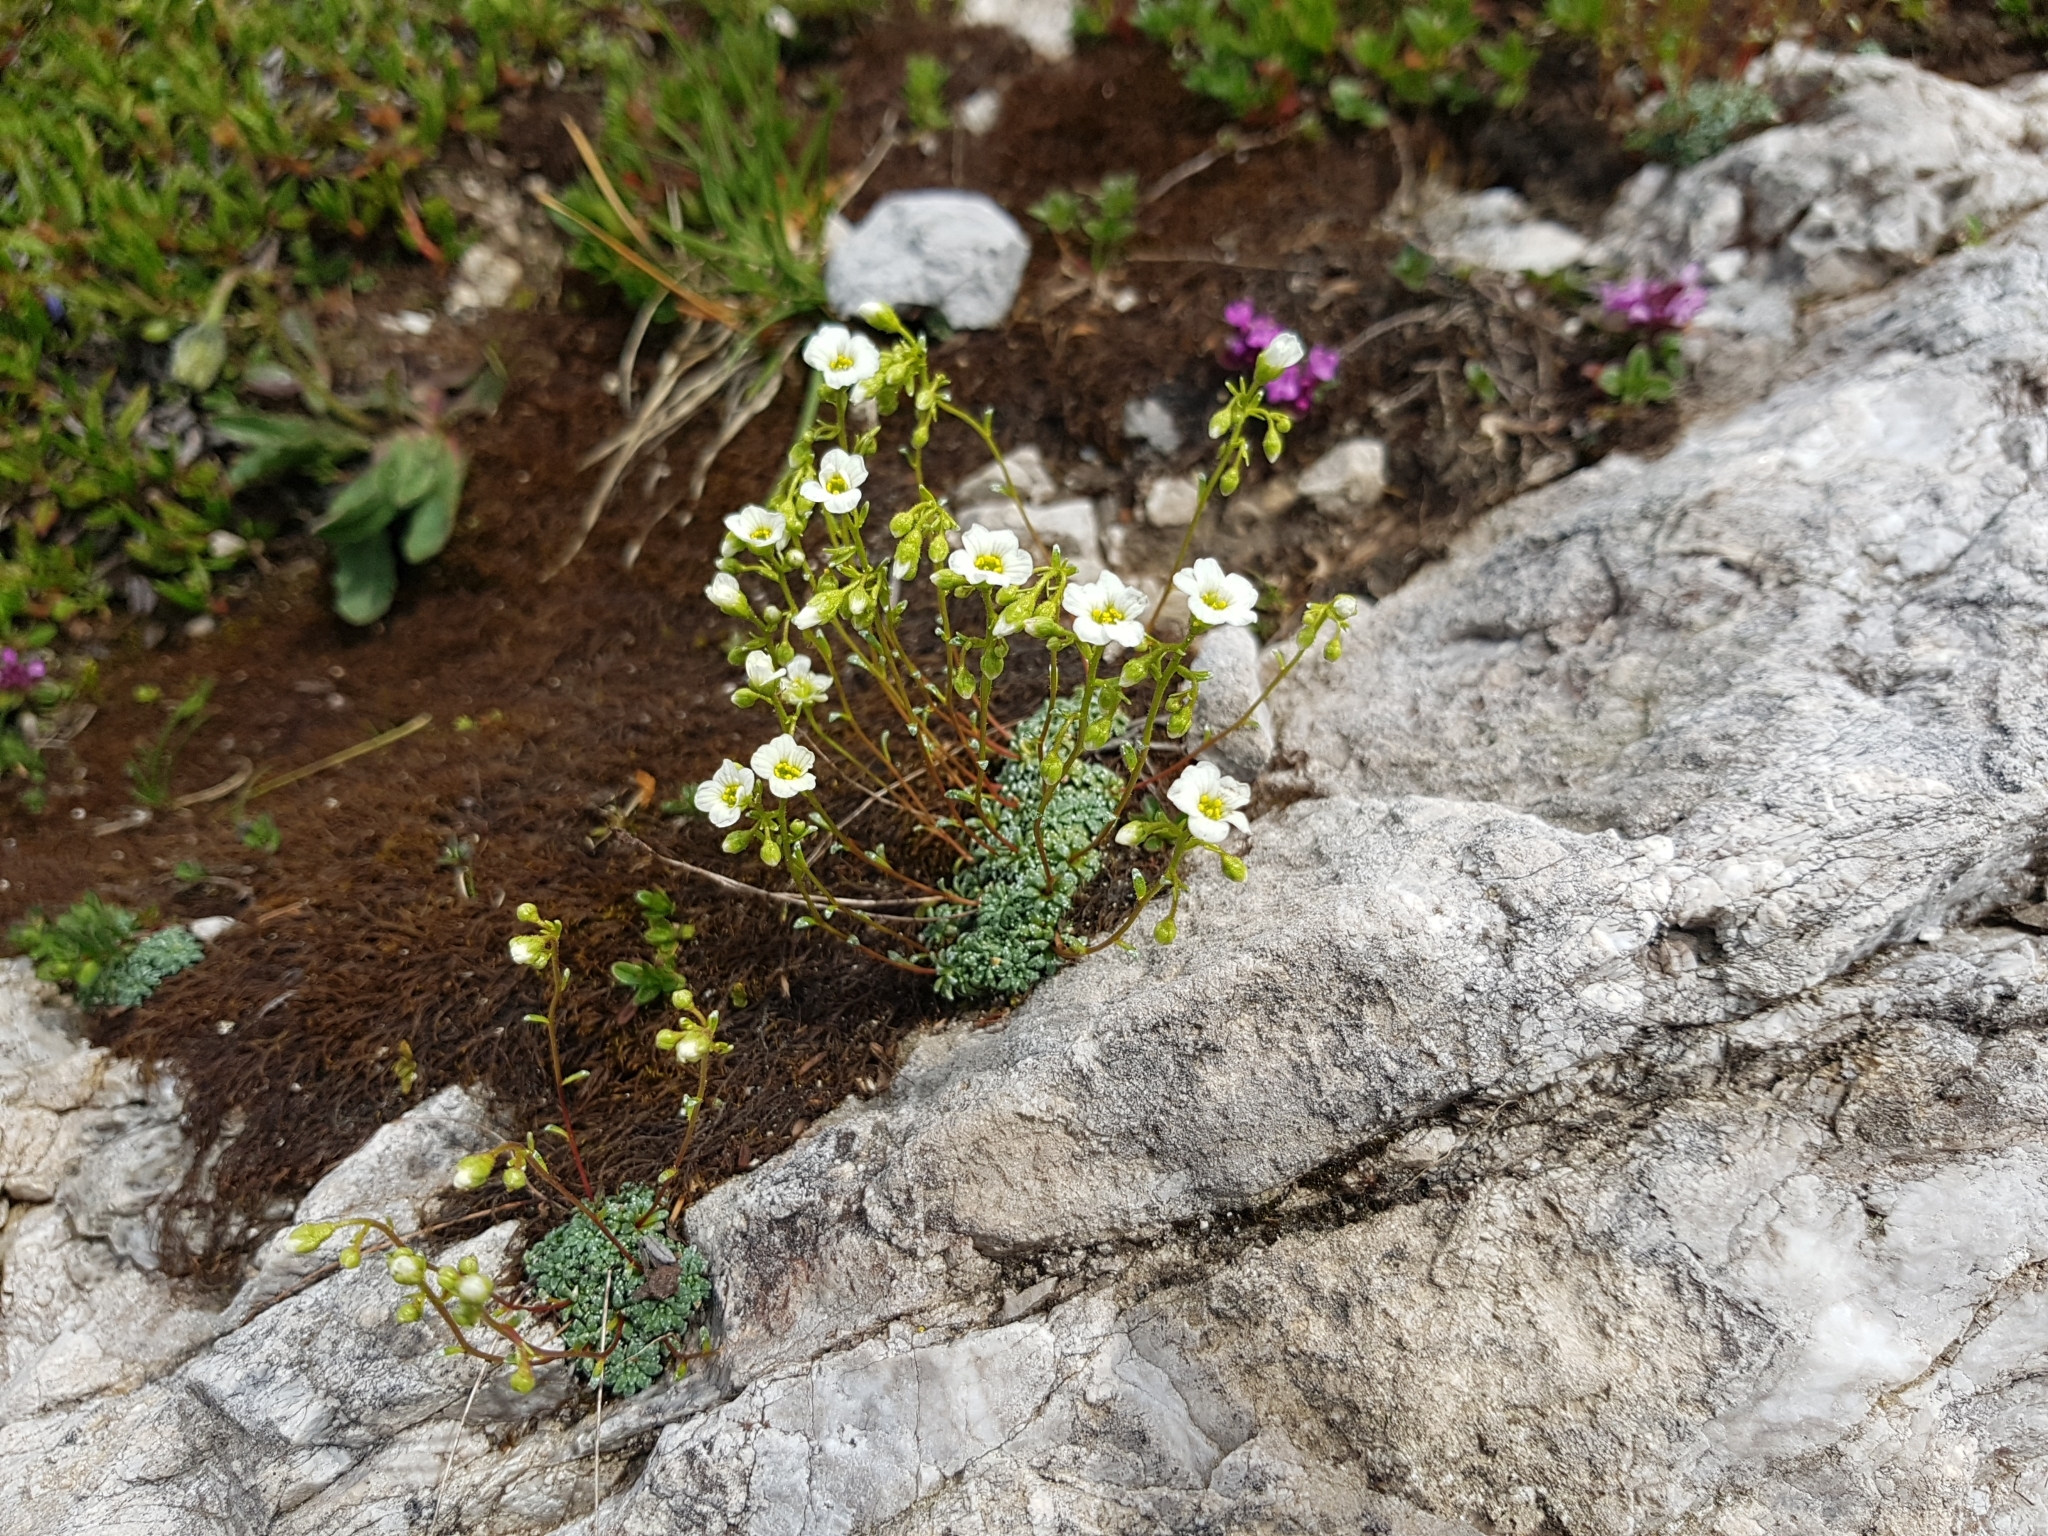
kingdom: Plantae
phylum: Tracheophyta
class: Magnoliopsida
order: Saxifragales
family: Saxifragaceae
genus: Saxifraga
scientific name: Saxifraga caesia
